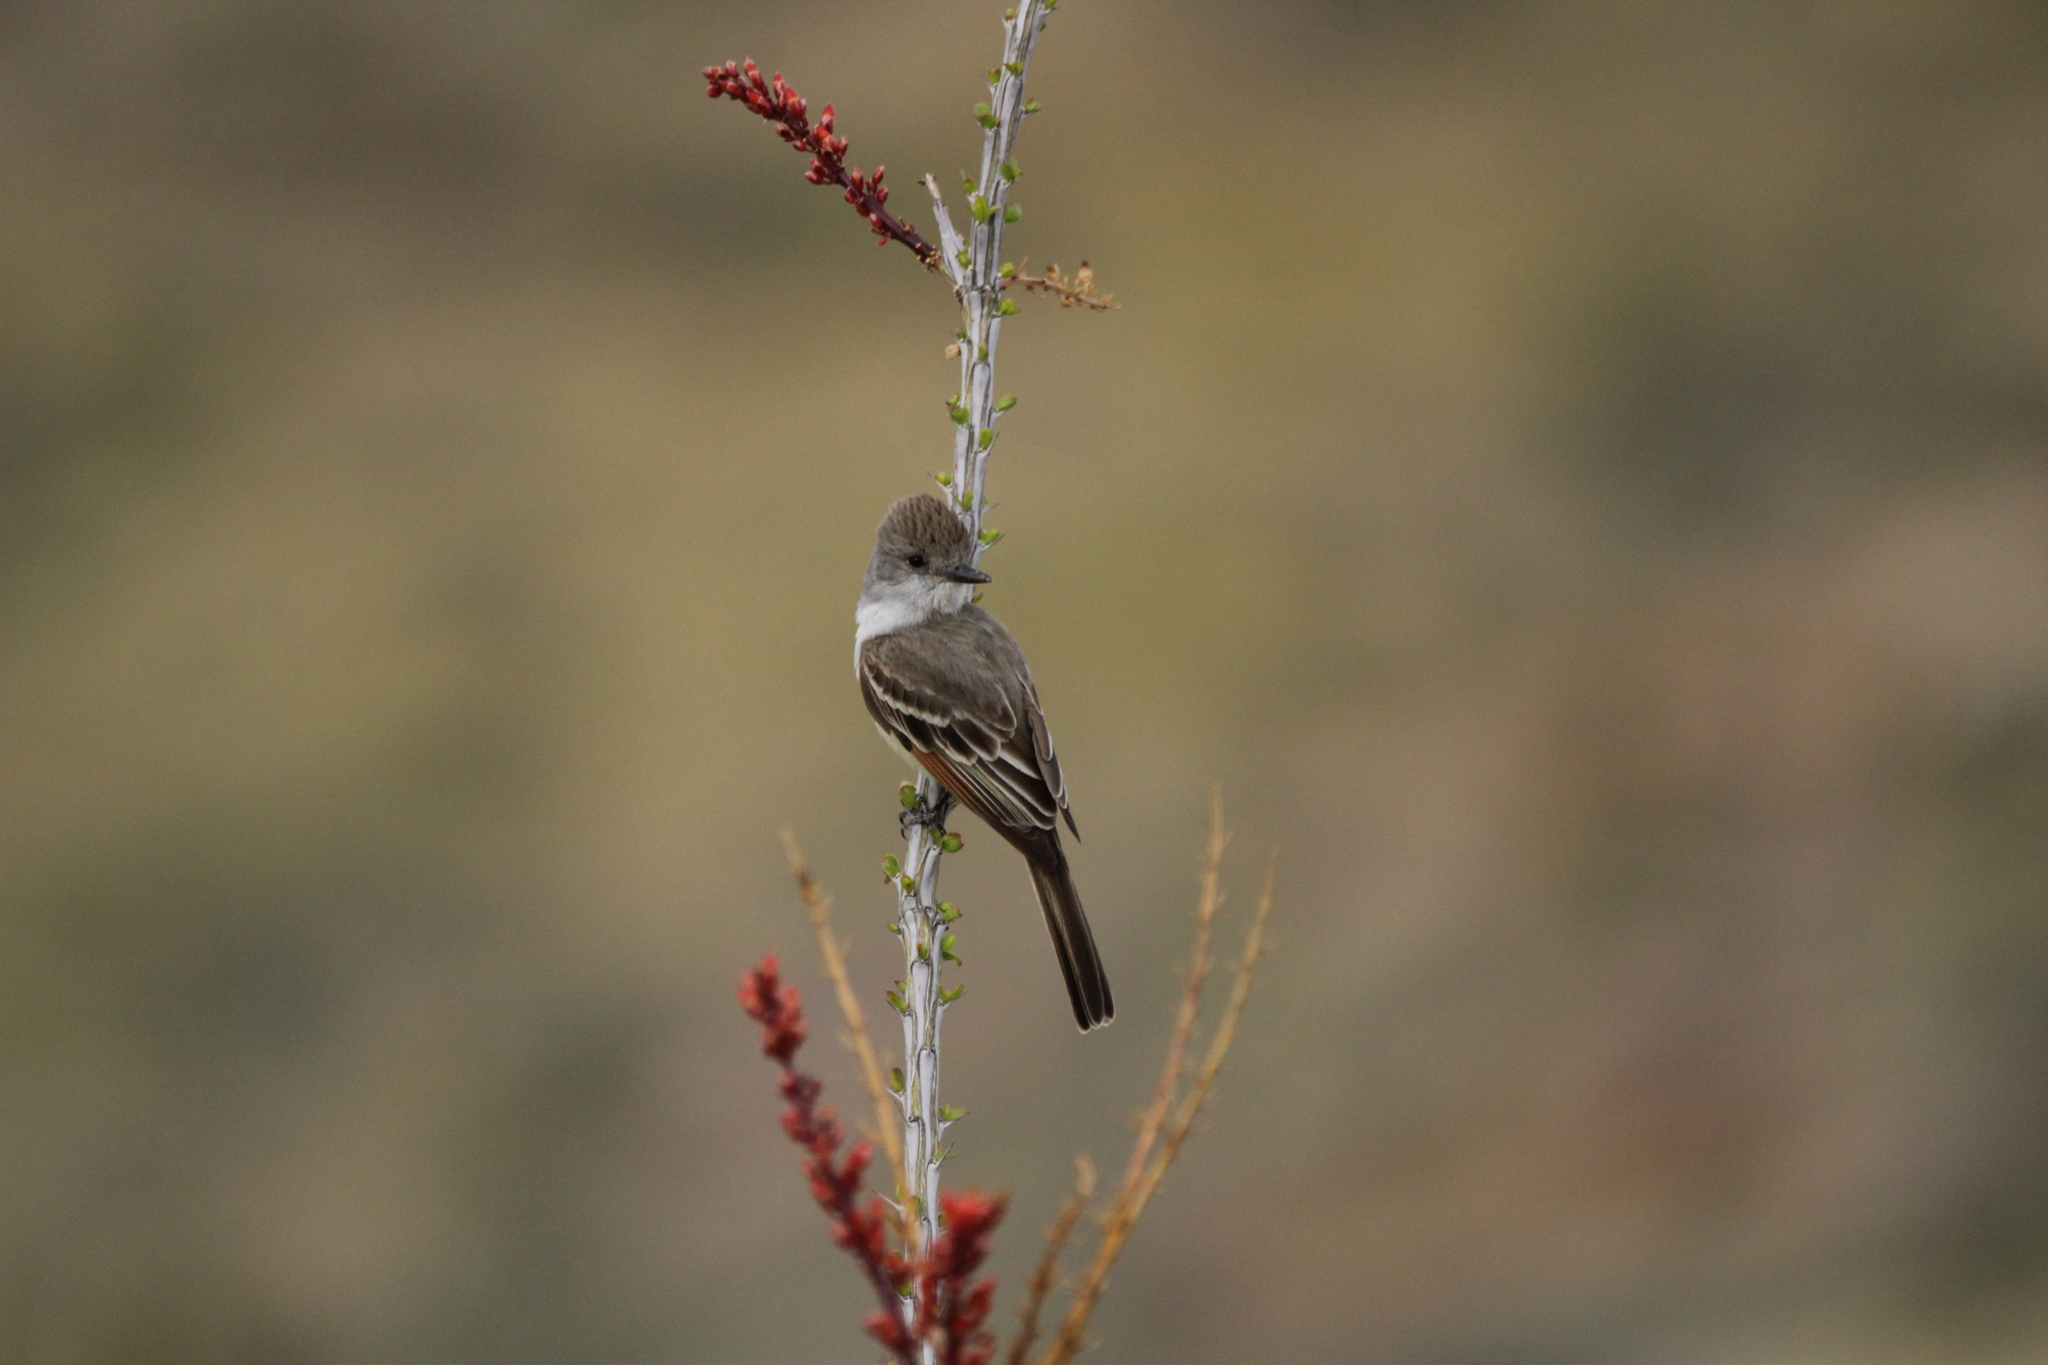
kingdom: Animalia
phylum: Chordata
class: Aves
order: Passeriformes
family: Tyrannidae
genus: Myiarchus
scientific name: Myiarchus cinerascens
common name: Ash-throated flycatcher
